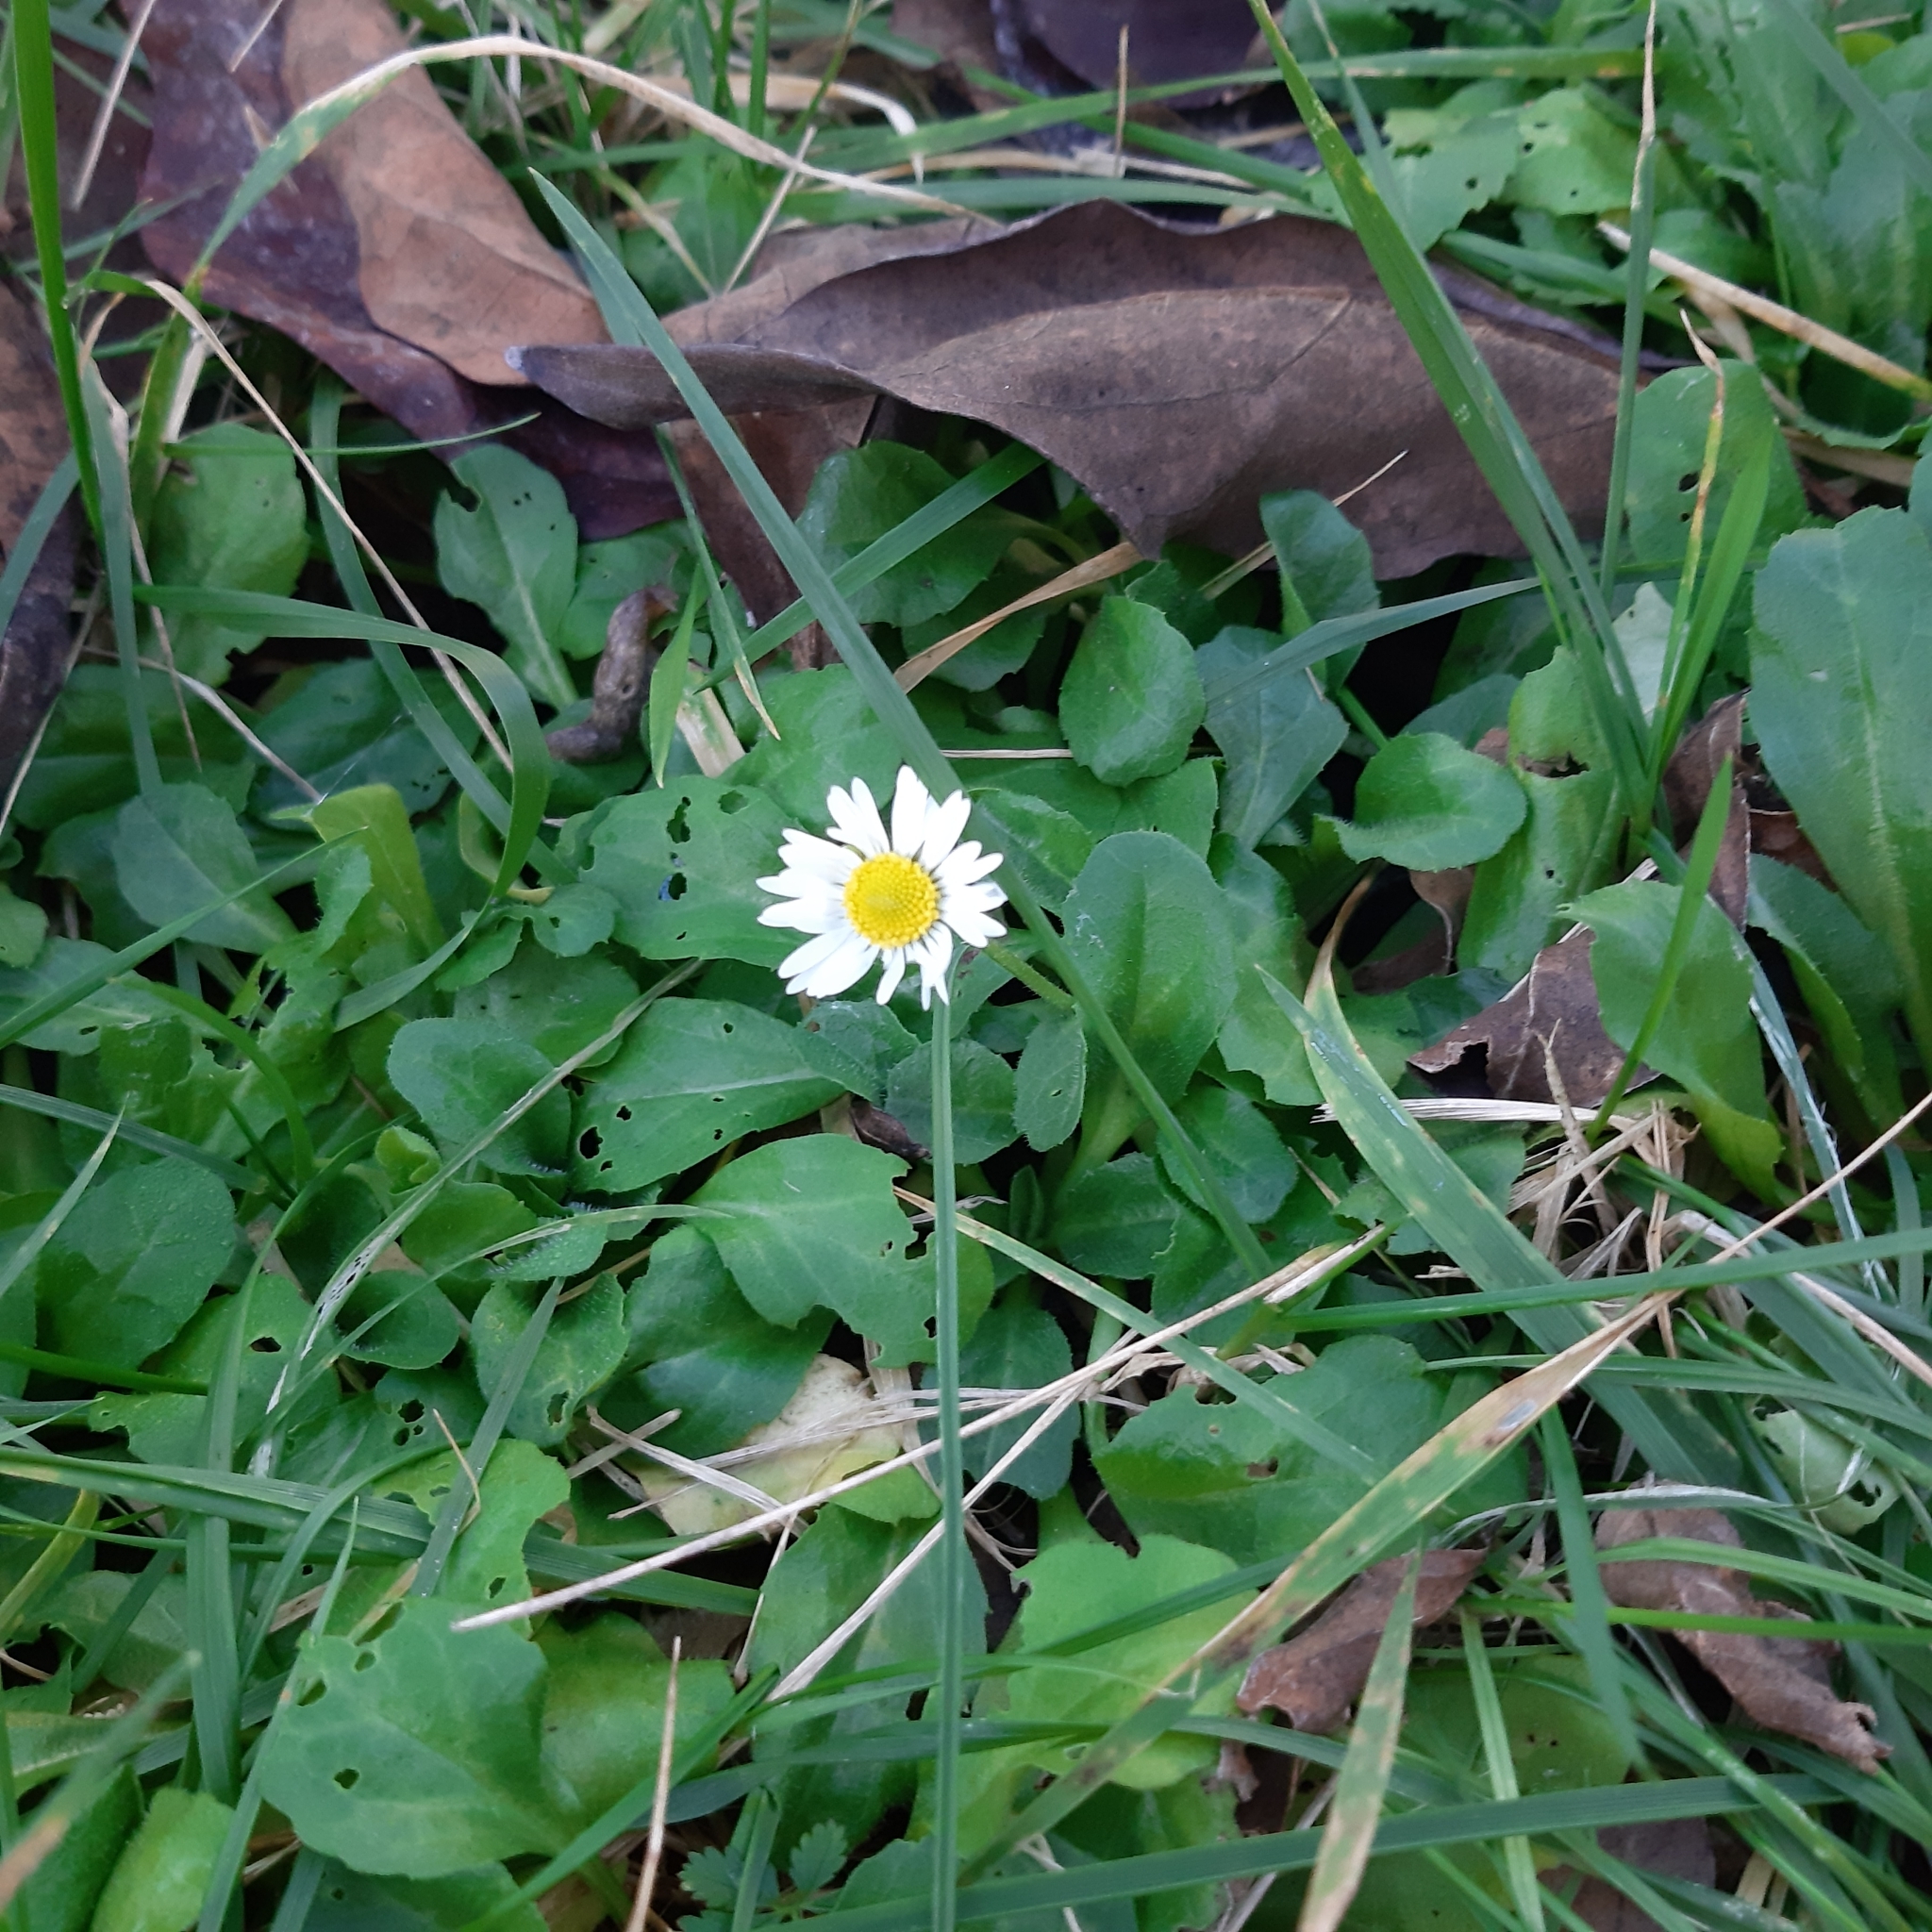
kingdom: Plantae
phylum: Tracheophyta
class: Magnoliopsida
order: Asterales
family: Asteraceae
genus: Bellis
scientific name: Bellis perennis
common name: Lawndaisy
